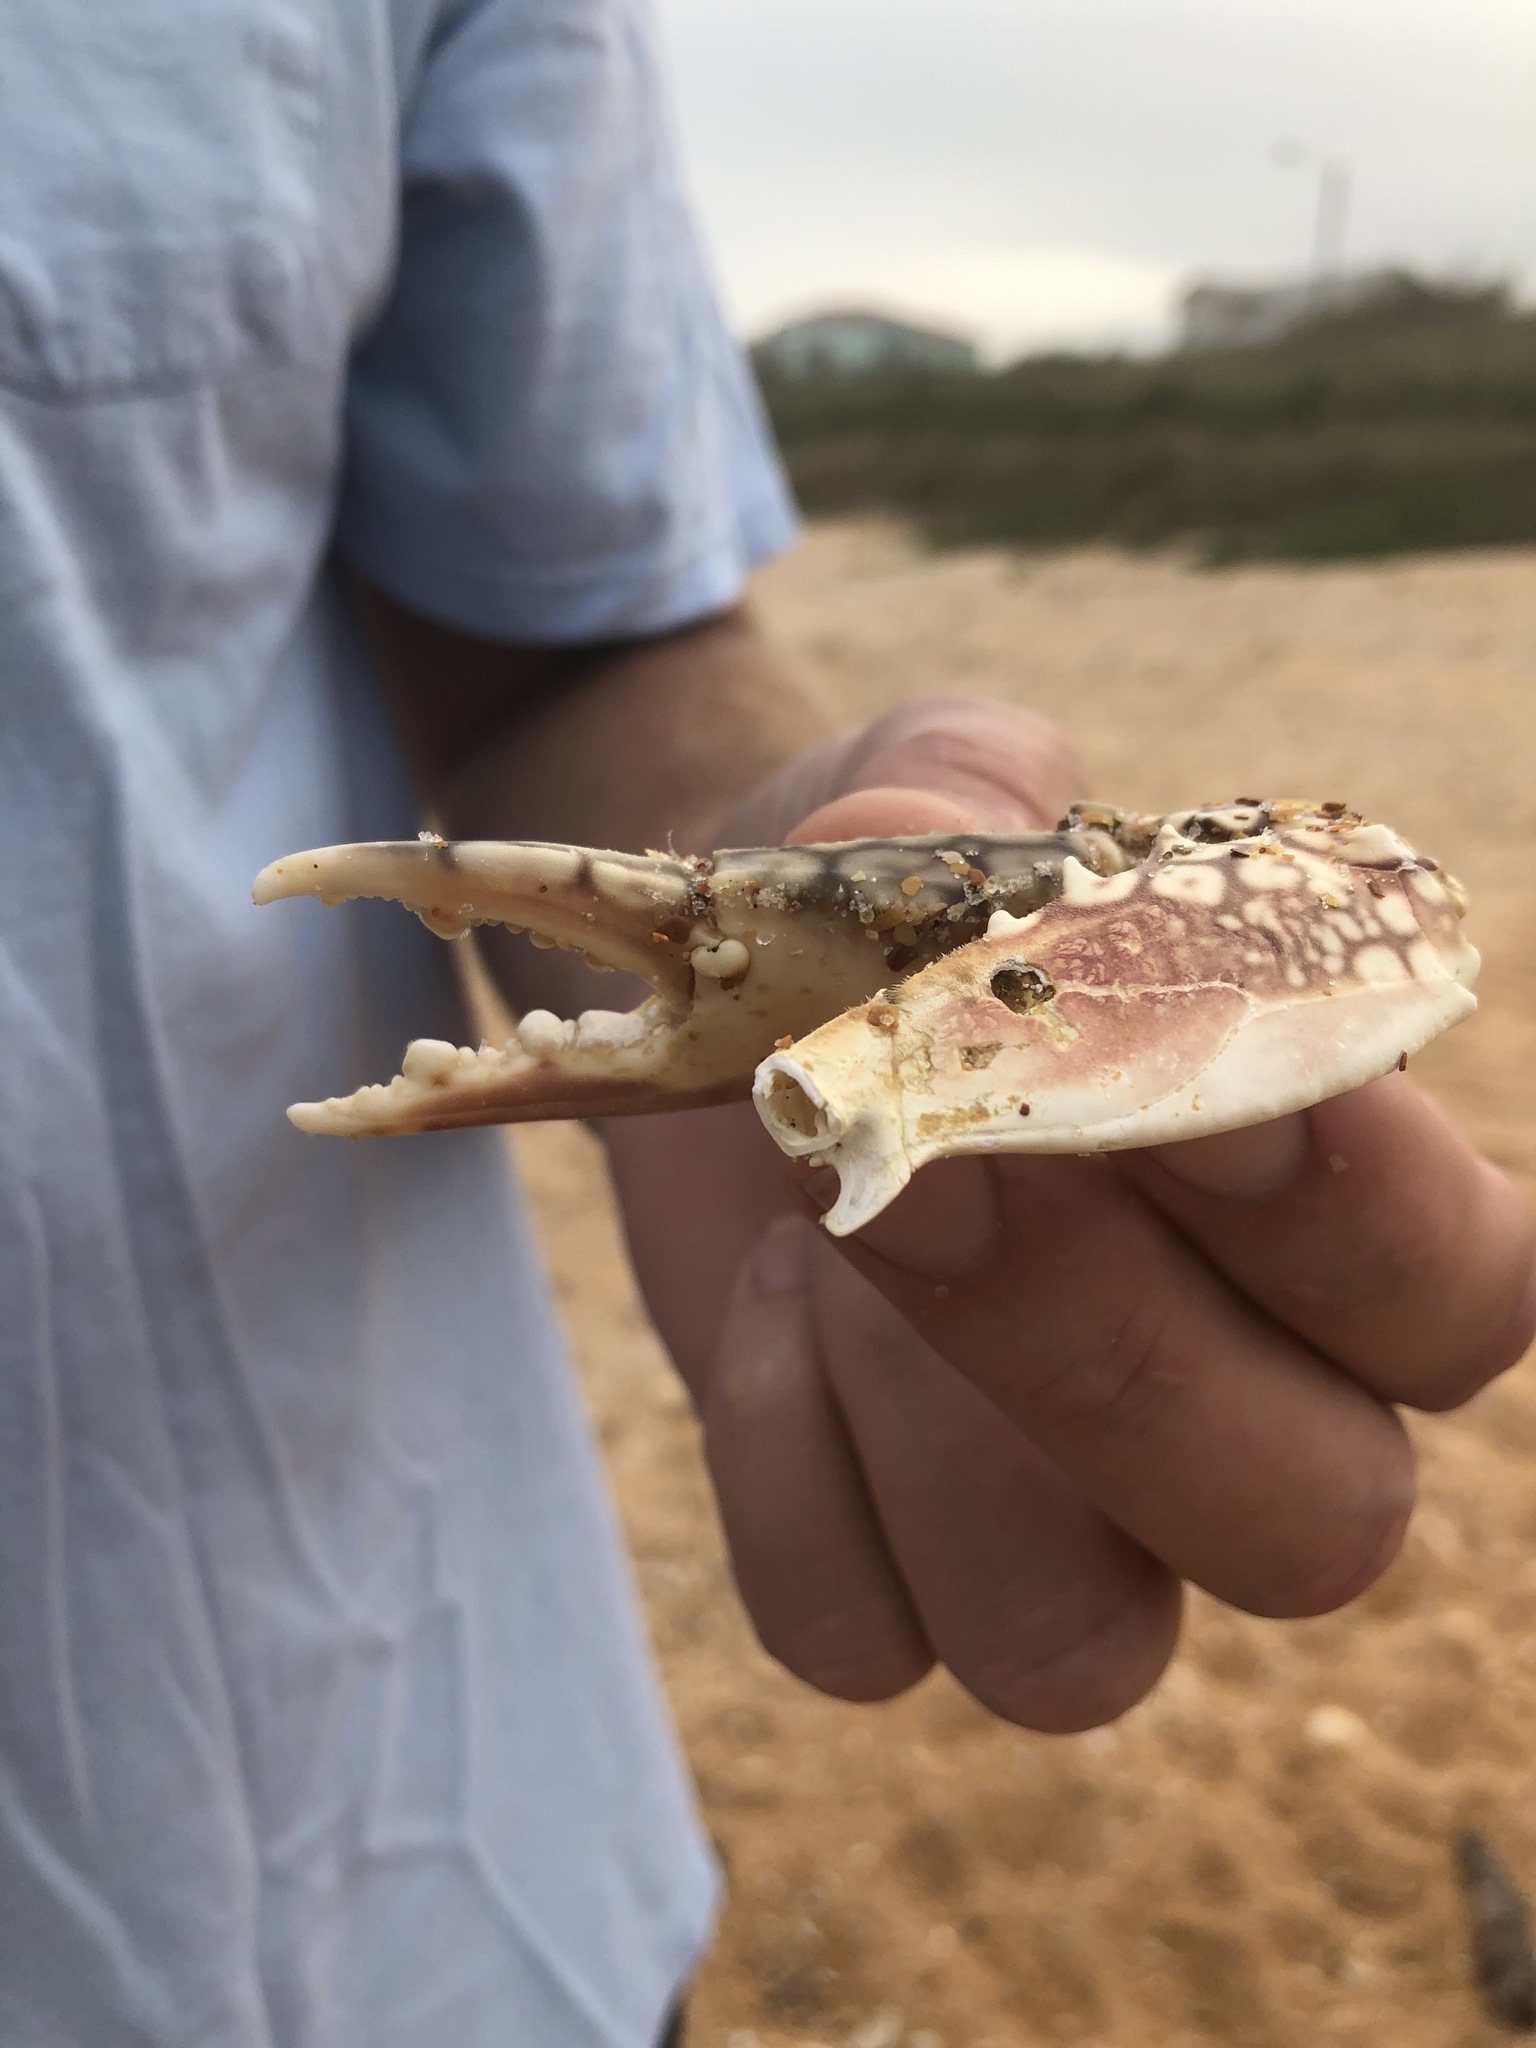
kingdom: Animalia
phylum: Arthropoda
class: Malacostraca
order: Decapoda
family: Portunidae
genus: Arenaeus
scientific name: Arenaeus cribrarius
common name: Speckled crab
